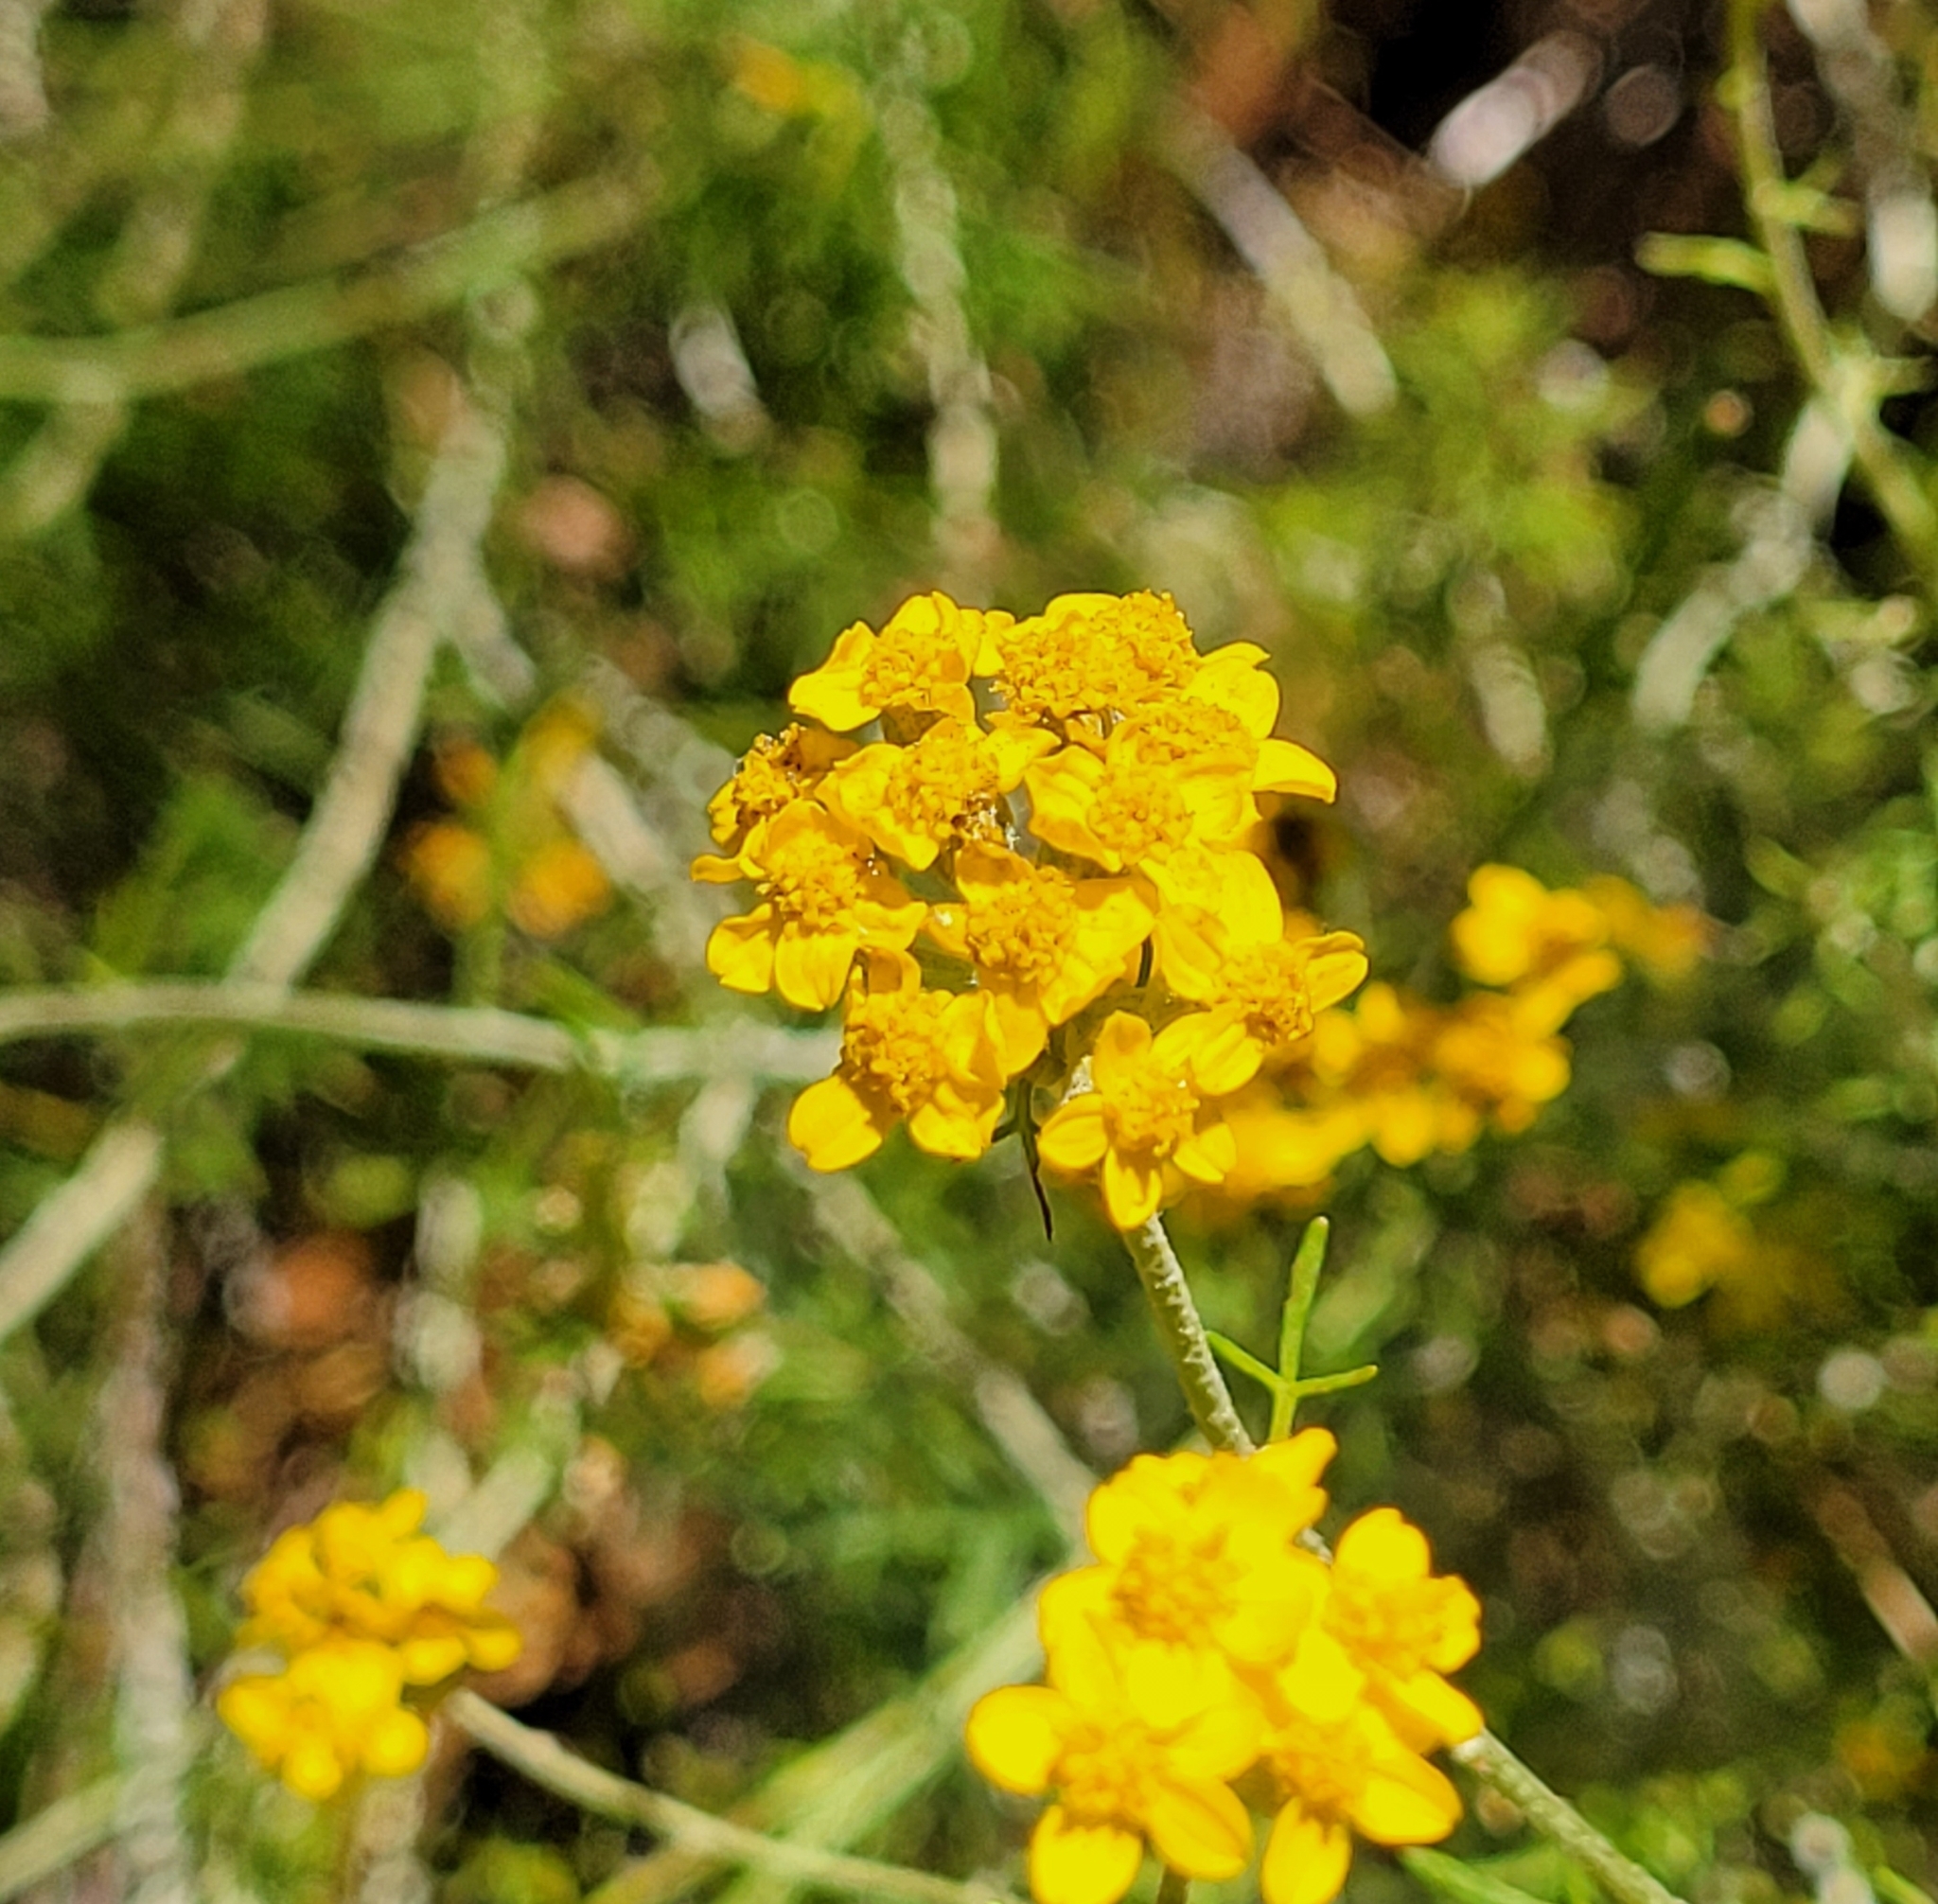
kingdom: Plantae
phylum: Tracheophyta
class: Magnoliopsida
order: Asterales
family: Asteraceae
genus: Eriophyllum
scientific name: Eriophyllum confertiflorum
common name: Golden-yarrow
